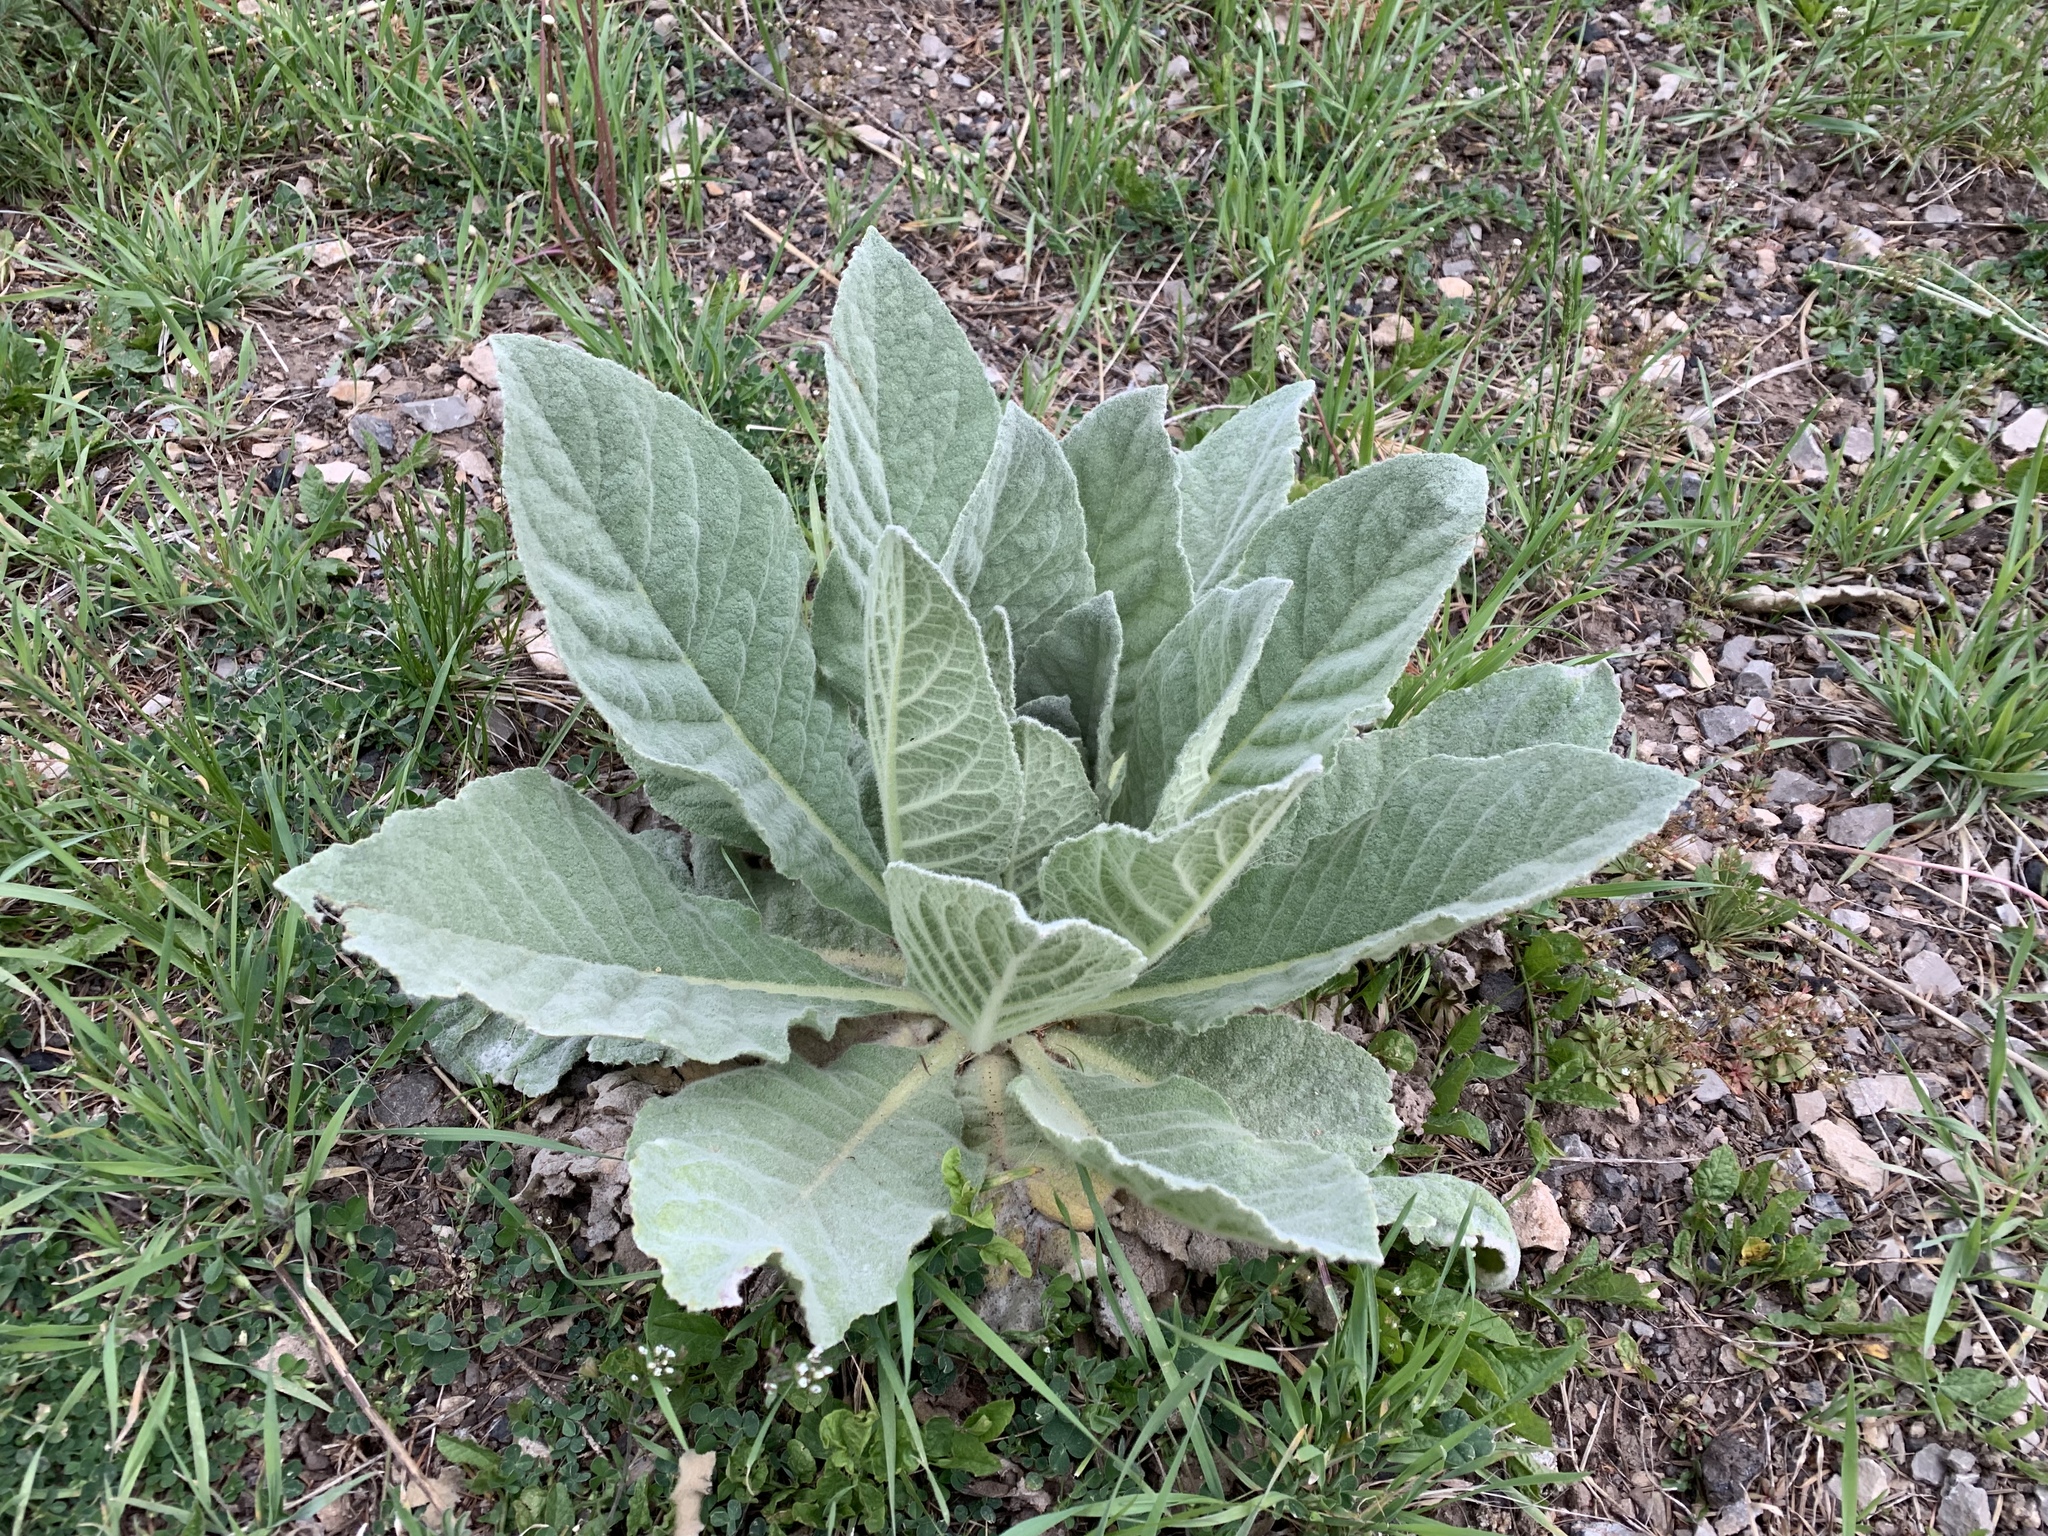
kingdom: Plantae
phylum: Tracheophyta
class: Magnoliopsida
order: Lamiales
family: Scrophulariaceae
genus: Verbascum
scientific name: Verbascum thapsus
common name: Common mullein
